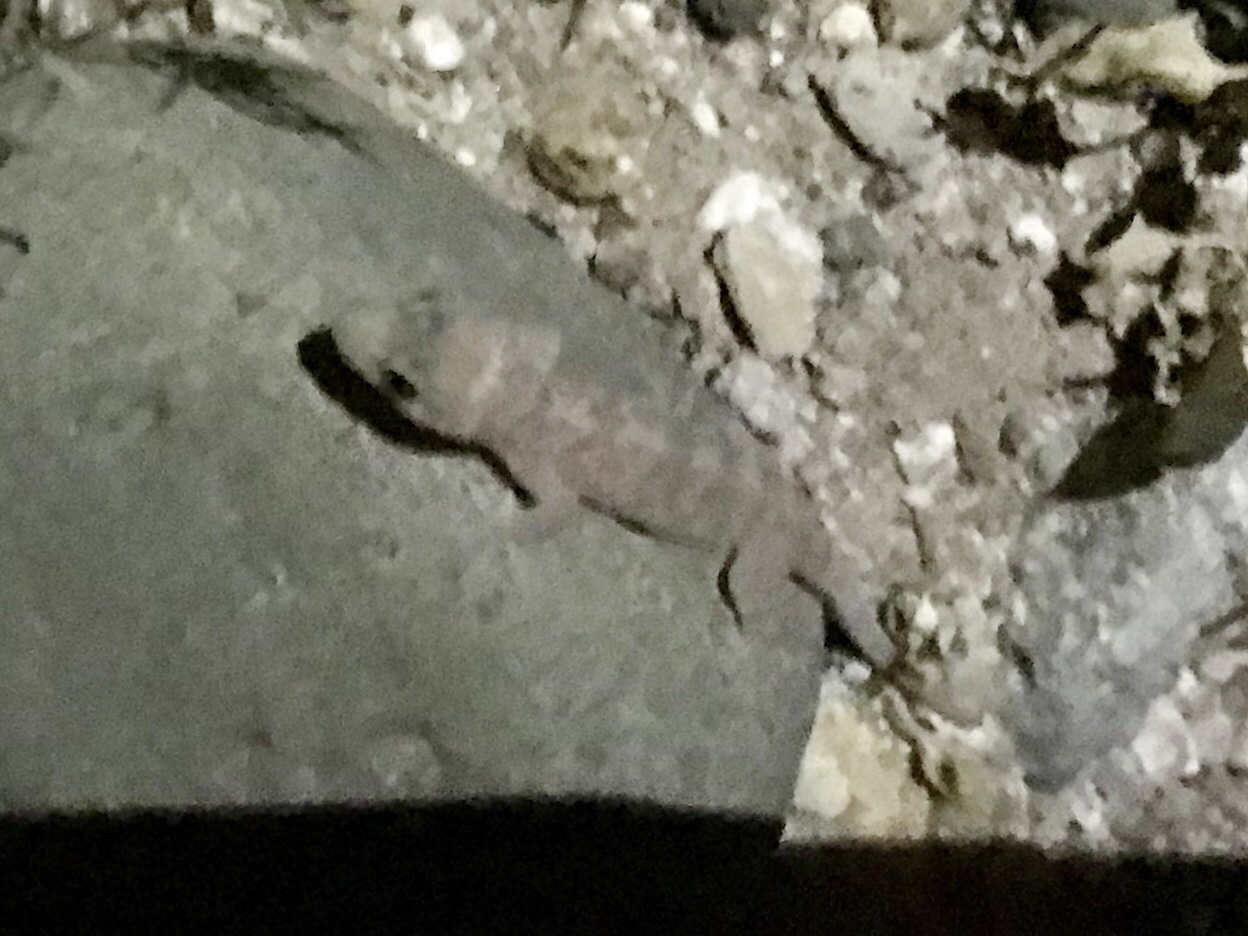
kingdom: Animalia
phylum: Chordata
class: Squamata
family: Gekkonidae
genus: Hemidactylus
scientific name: Hemidactylus turcicus
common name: Turkish gecko
